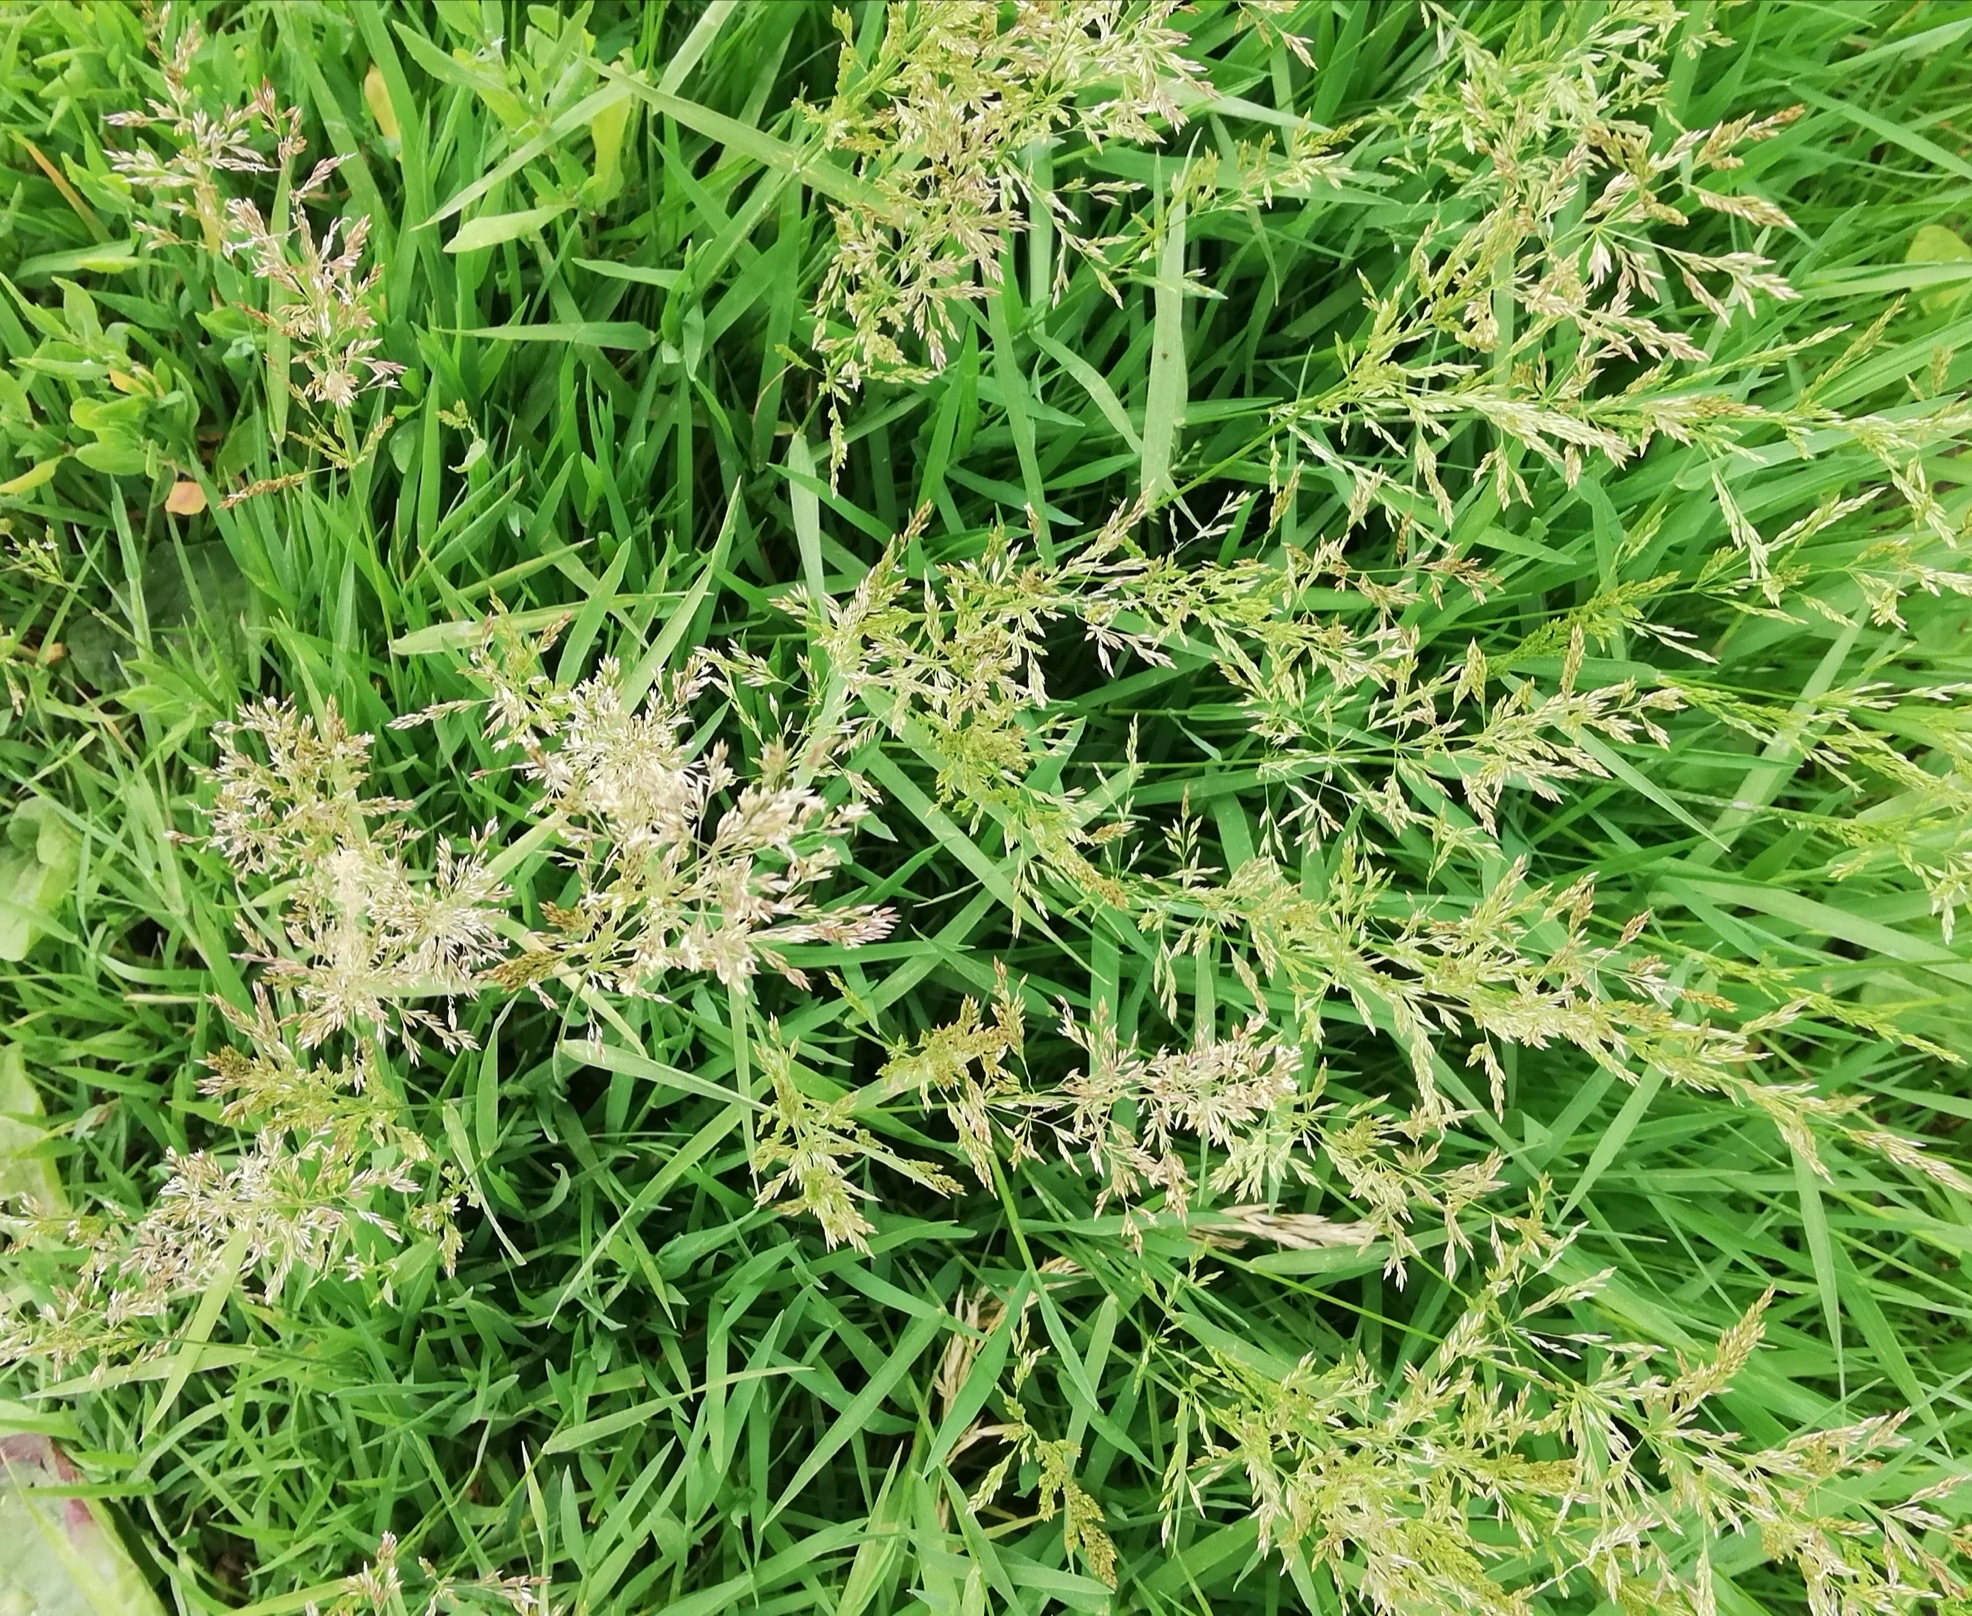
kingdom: Plantae
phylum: Tracheophyta
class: Liliopsida
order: Poales
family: Poaceae
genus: Poa
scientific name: Poa pratensis
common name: Kentucky bluegrass
